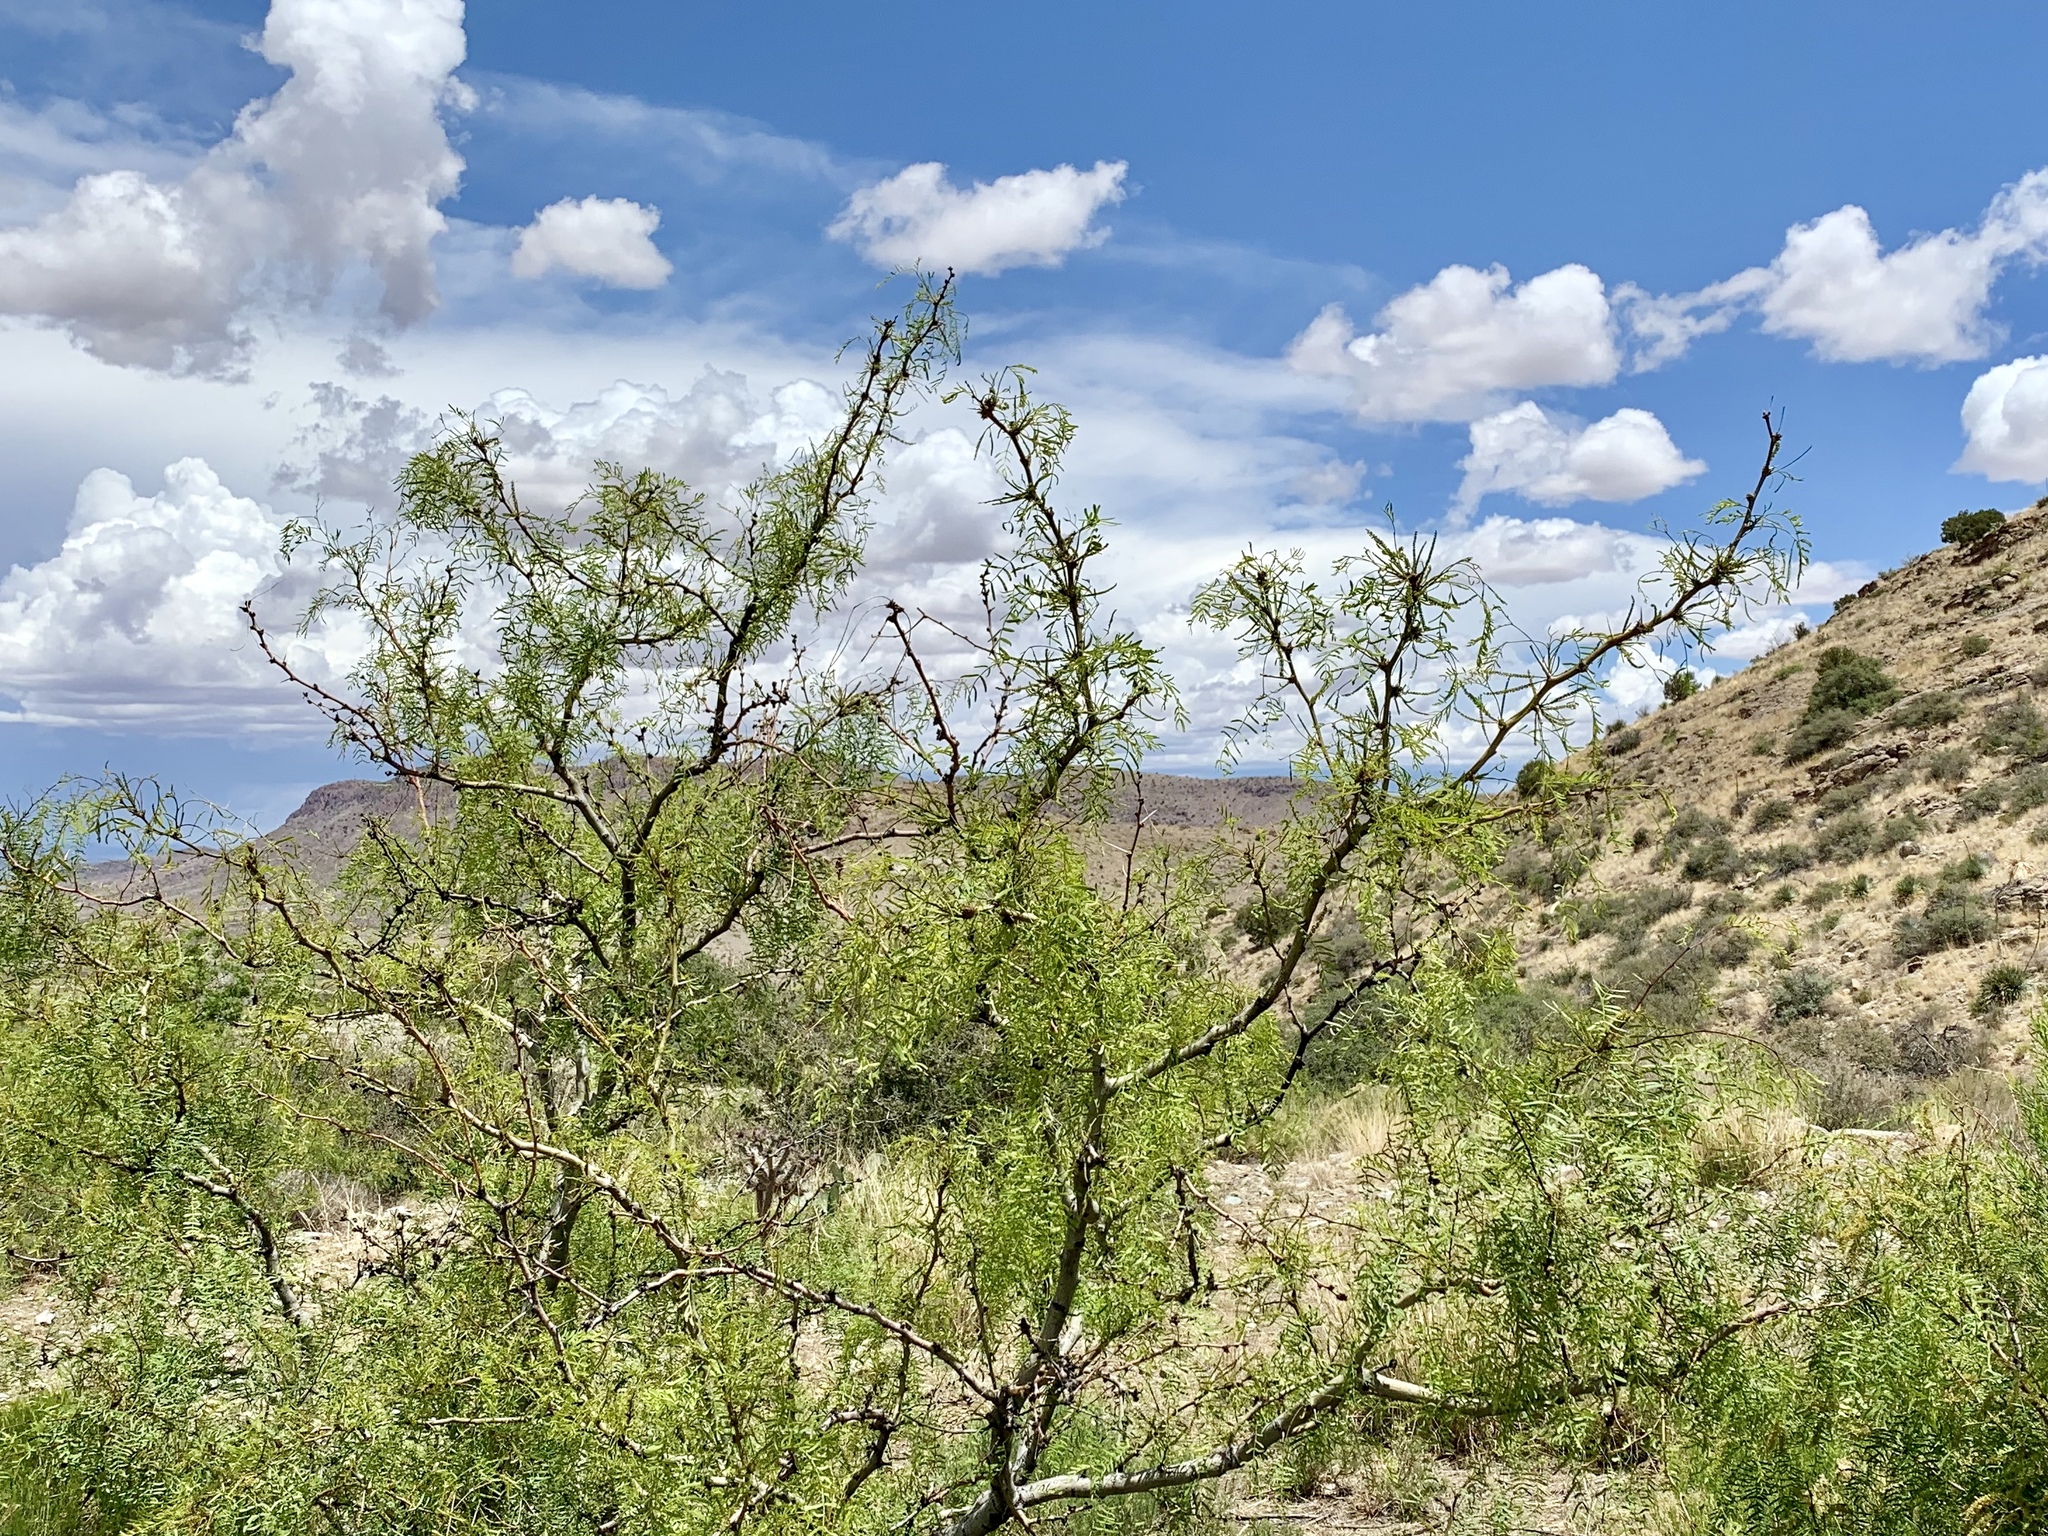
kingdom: Plantae
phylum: Tracheophyta
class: Magnoliopsida
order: Fabales
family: Fabaceae
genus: Prosopis
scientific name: Prosopis glandulosa
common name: Honey mesquite
